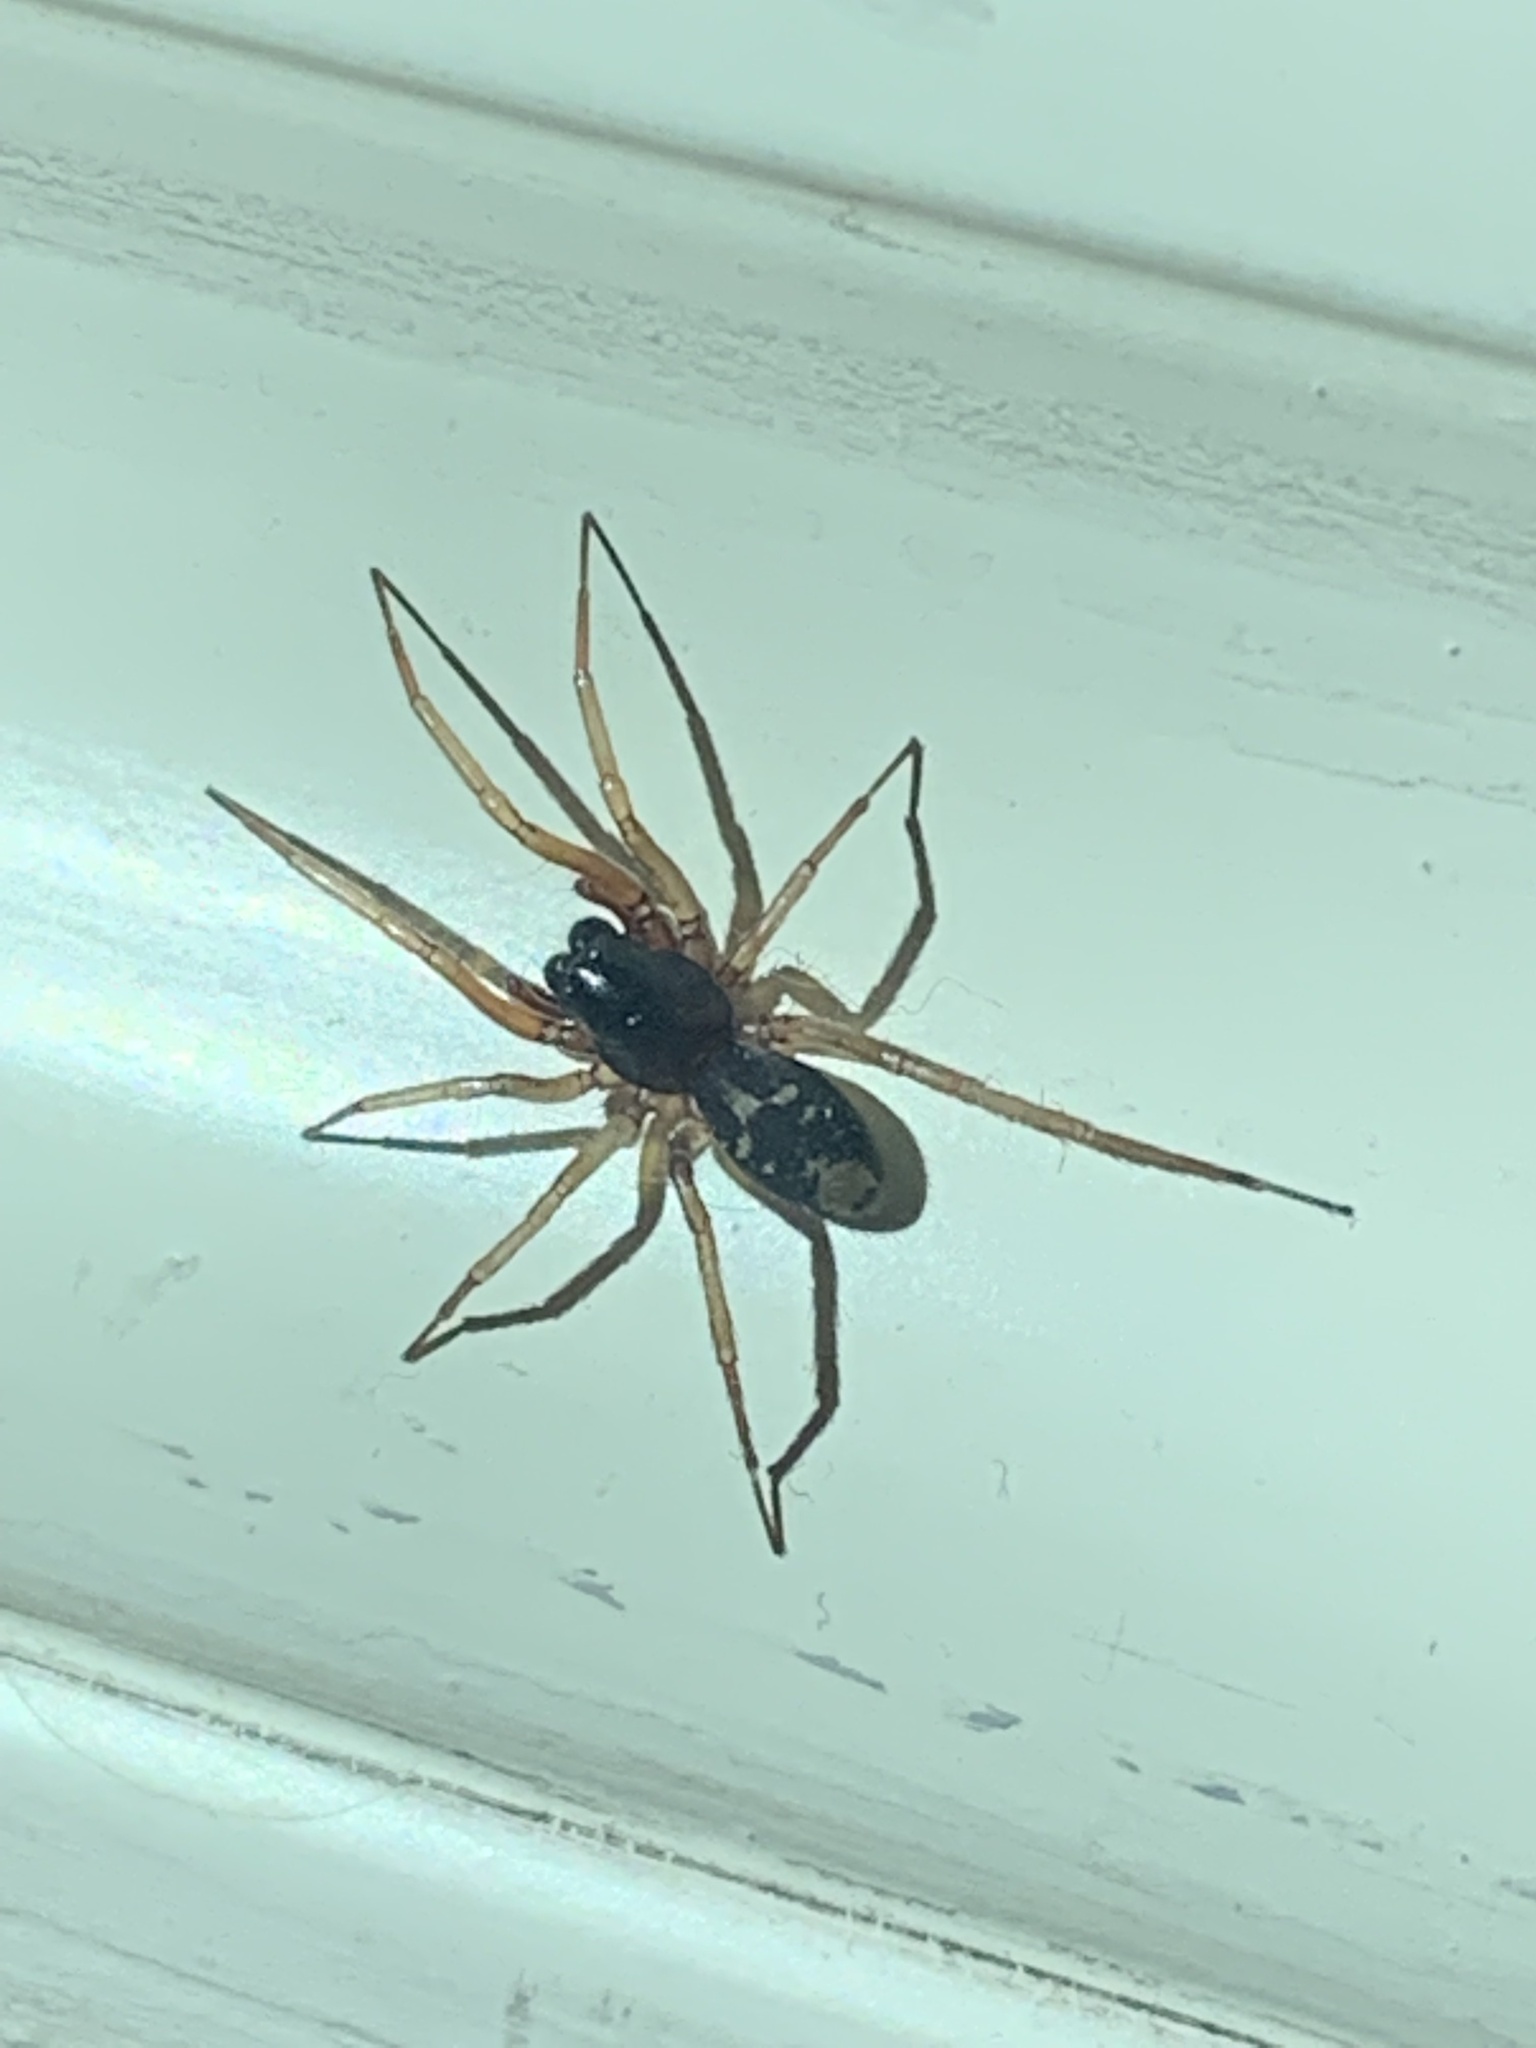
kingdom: Animalia
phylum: Arthropoda
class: Arachnida
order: Araneae
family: Corinnidae
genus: Falconina
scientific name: Falconina gracilis
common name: Antmimic spider
